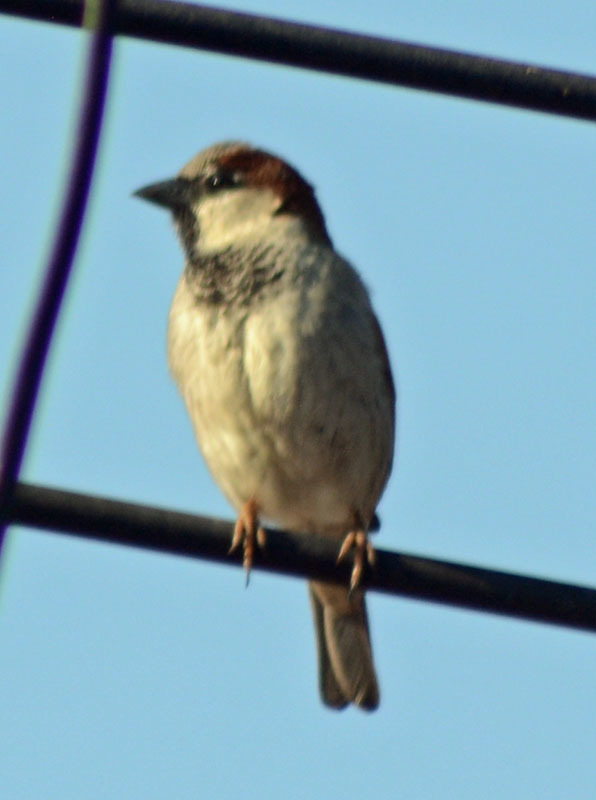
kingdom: Animalia
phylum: Chordata
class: Aves
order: Passeriformes
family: Passeridae
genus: Passer
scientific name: Passer domesticus
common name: House sparrow
